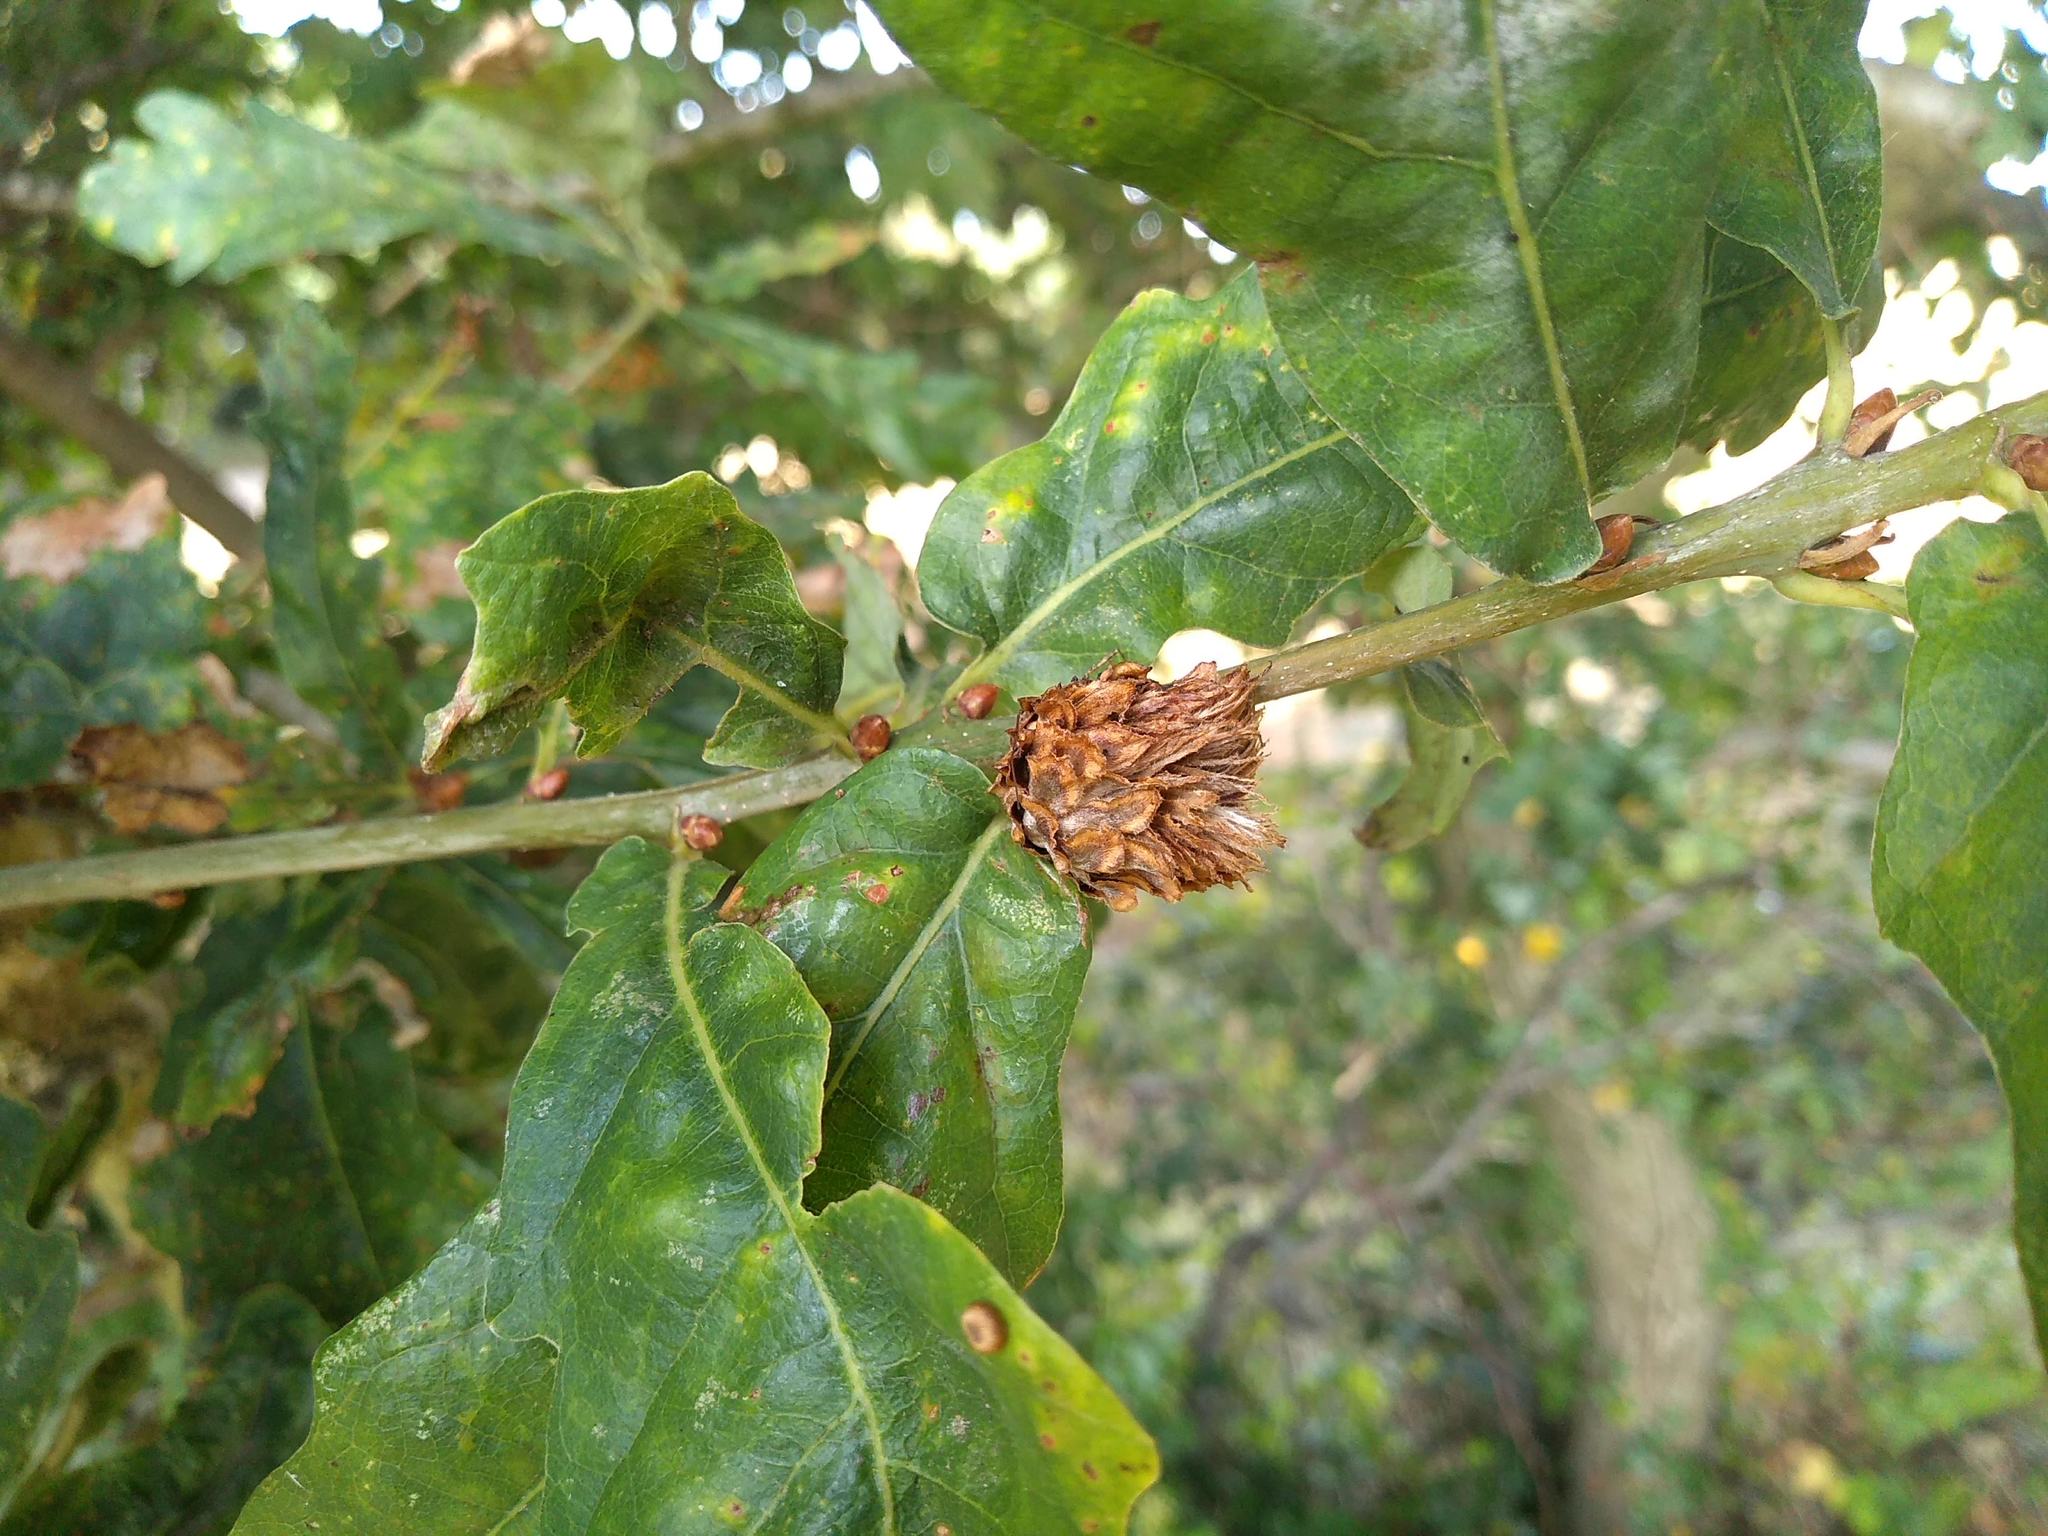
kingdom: Animalia
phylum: Arthropoda
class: Insecta
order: Hymenoptera
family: Cynipidae
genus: Andricus
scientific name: Andricus foecundatrix
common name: Artichoke gall
